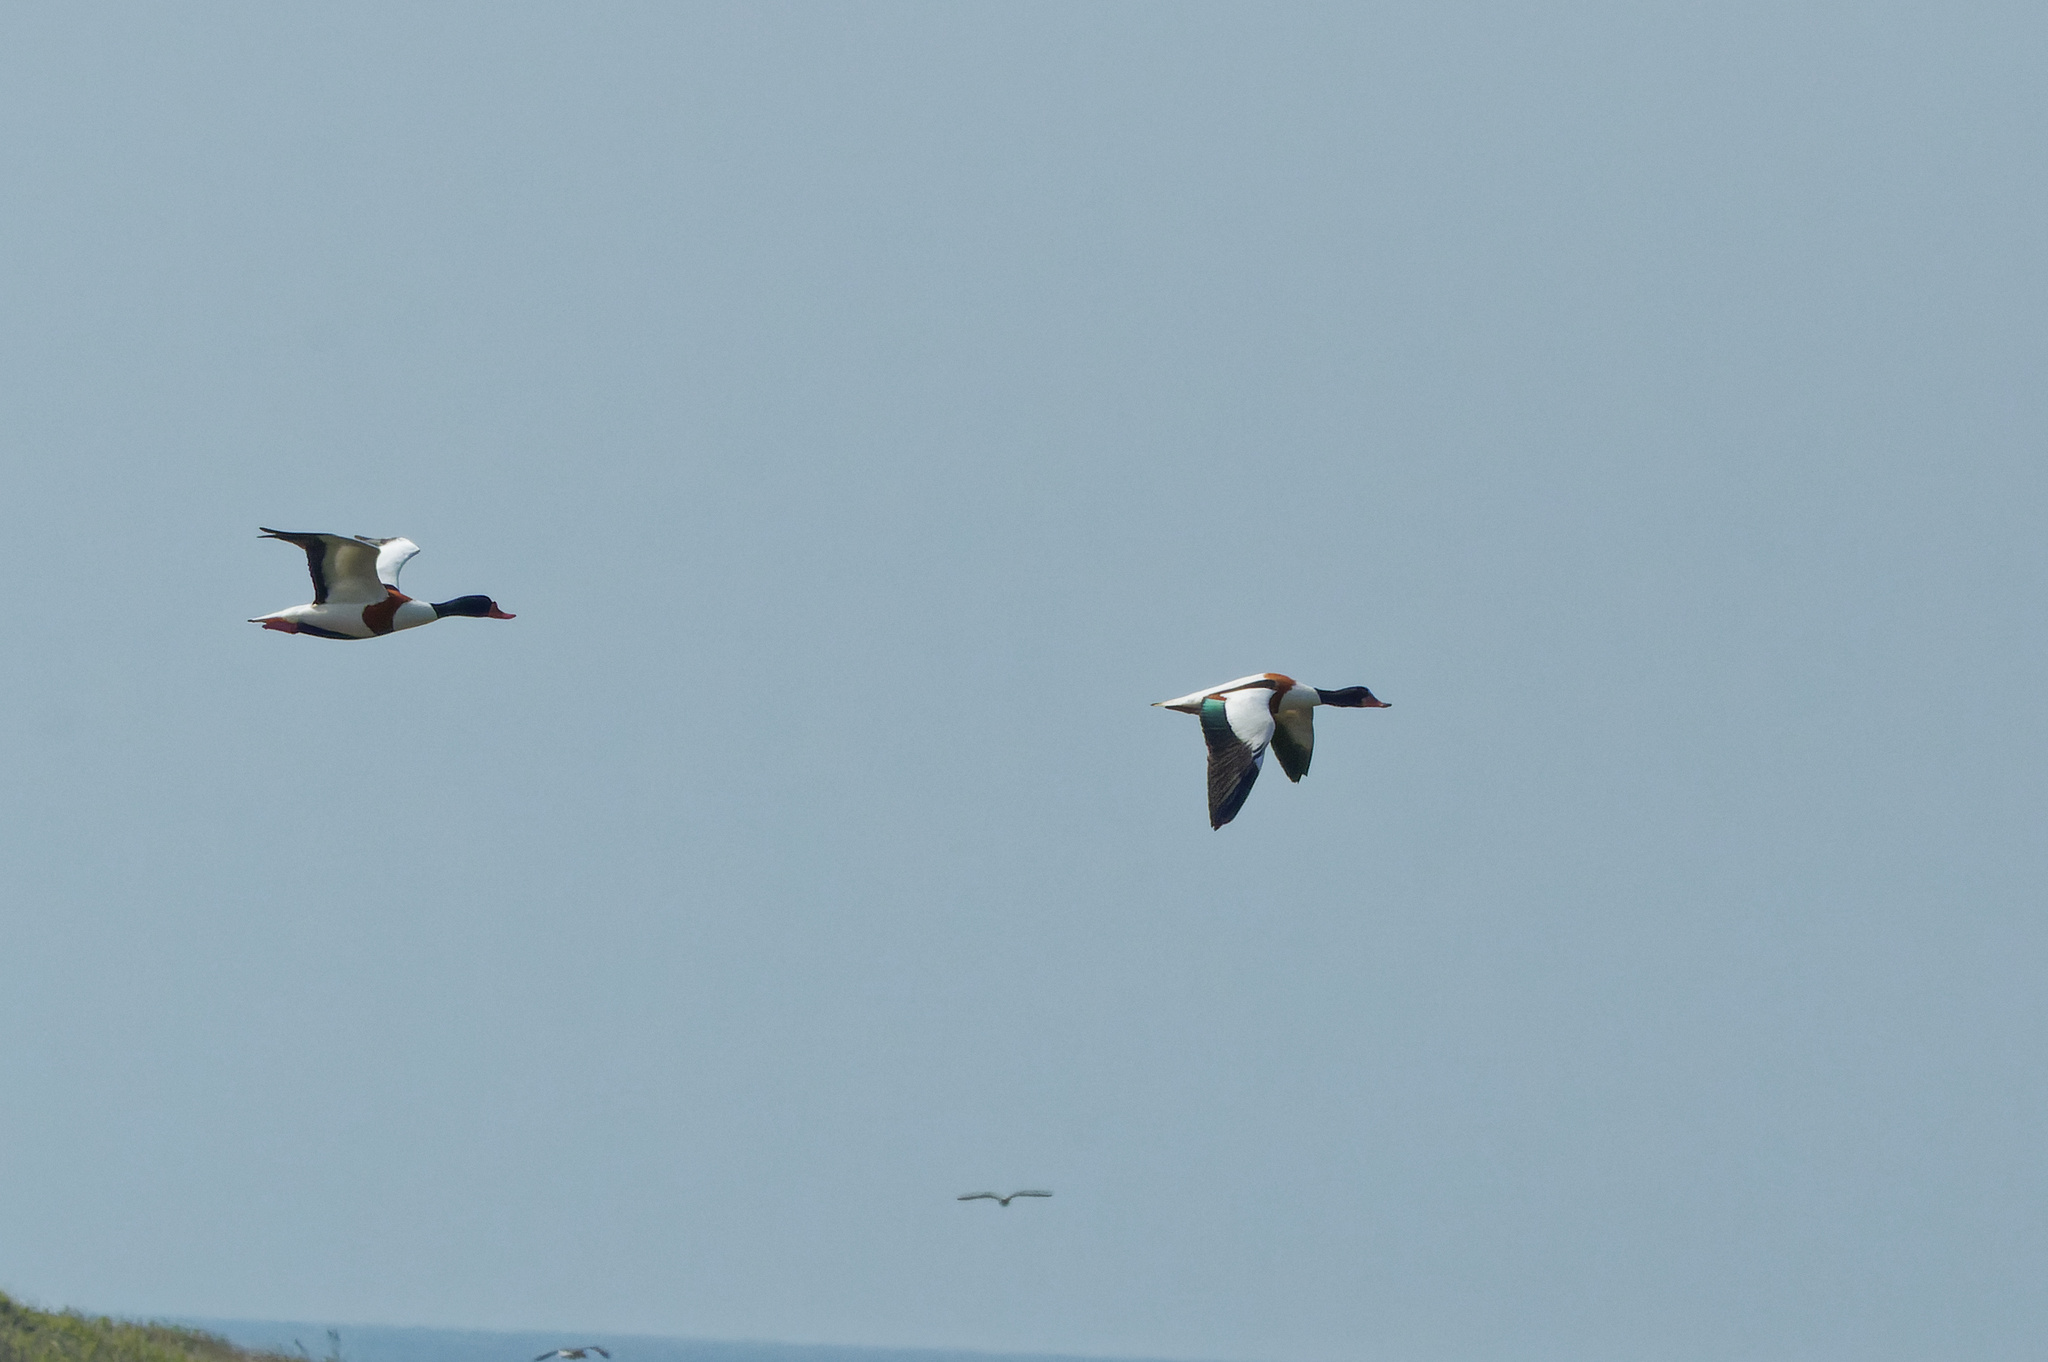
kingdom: Animalia
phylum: Chordata
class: Aves
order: Anseriformes
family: Anatidae
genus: Tadorna
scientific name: Tadorna tadorna
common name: Common shelduck
